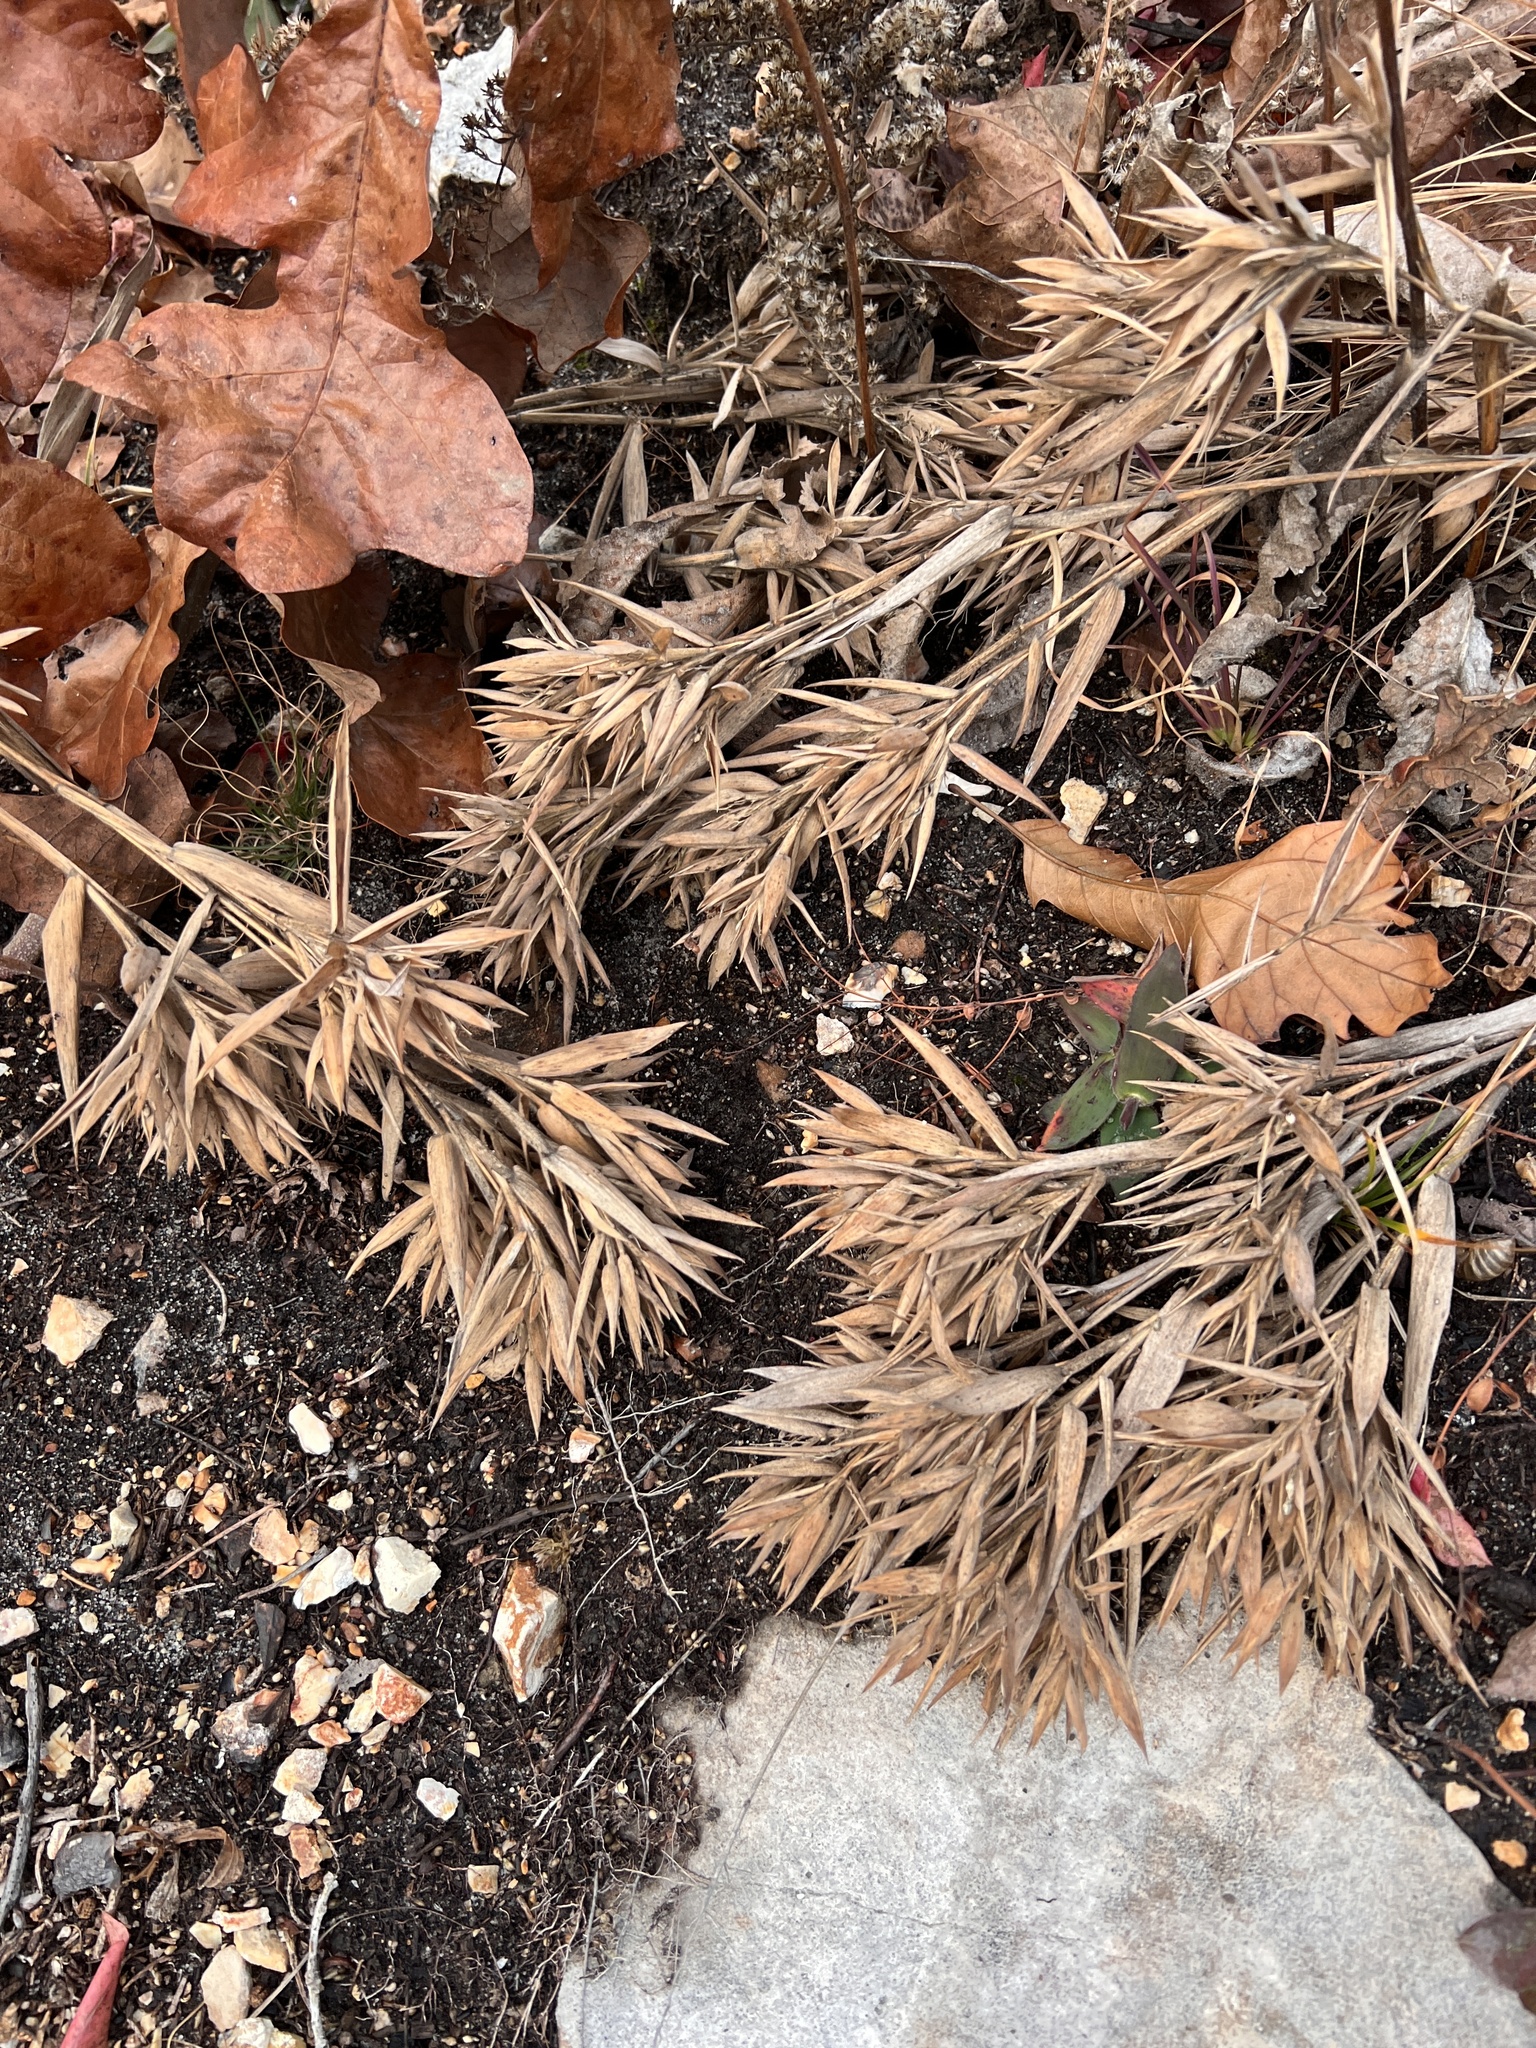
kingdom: Plantae
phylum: Tracheophyta
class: Liliopsida
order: Poales
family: Poaceae
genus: Dichanthelium
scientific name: Dichanthelium ravenelii
